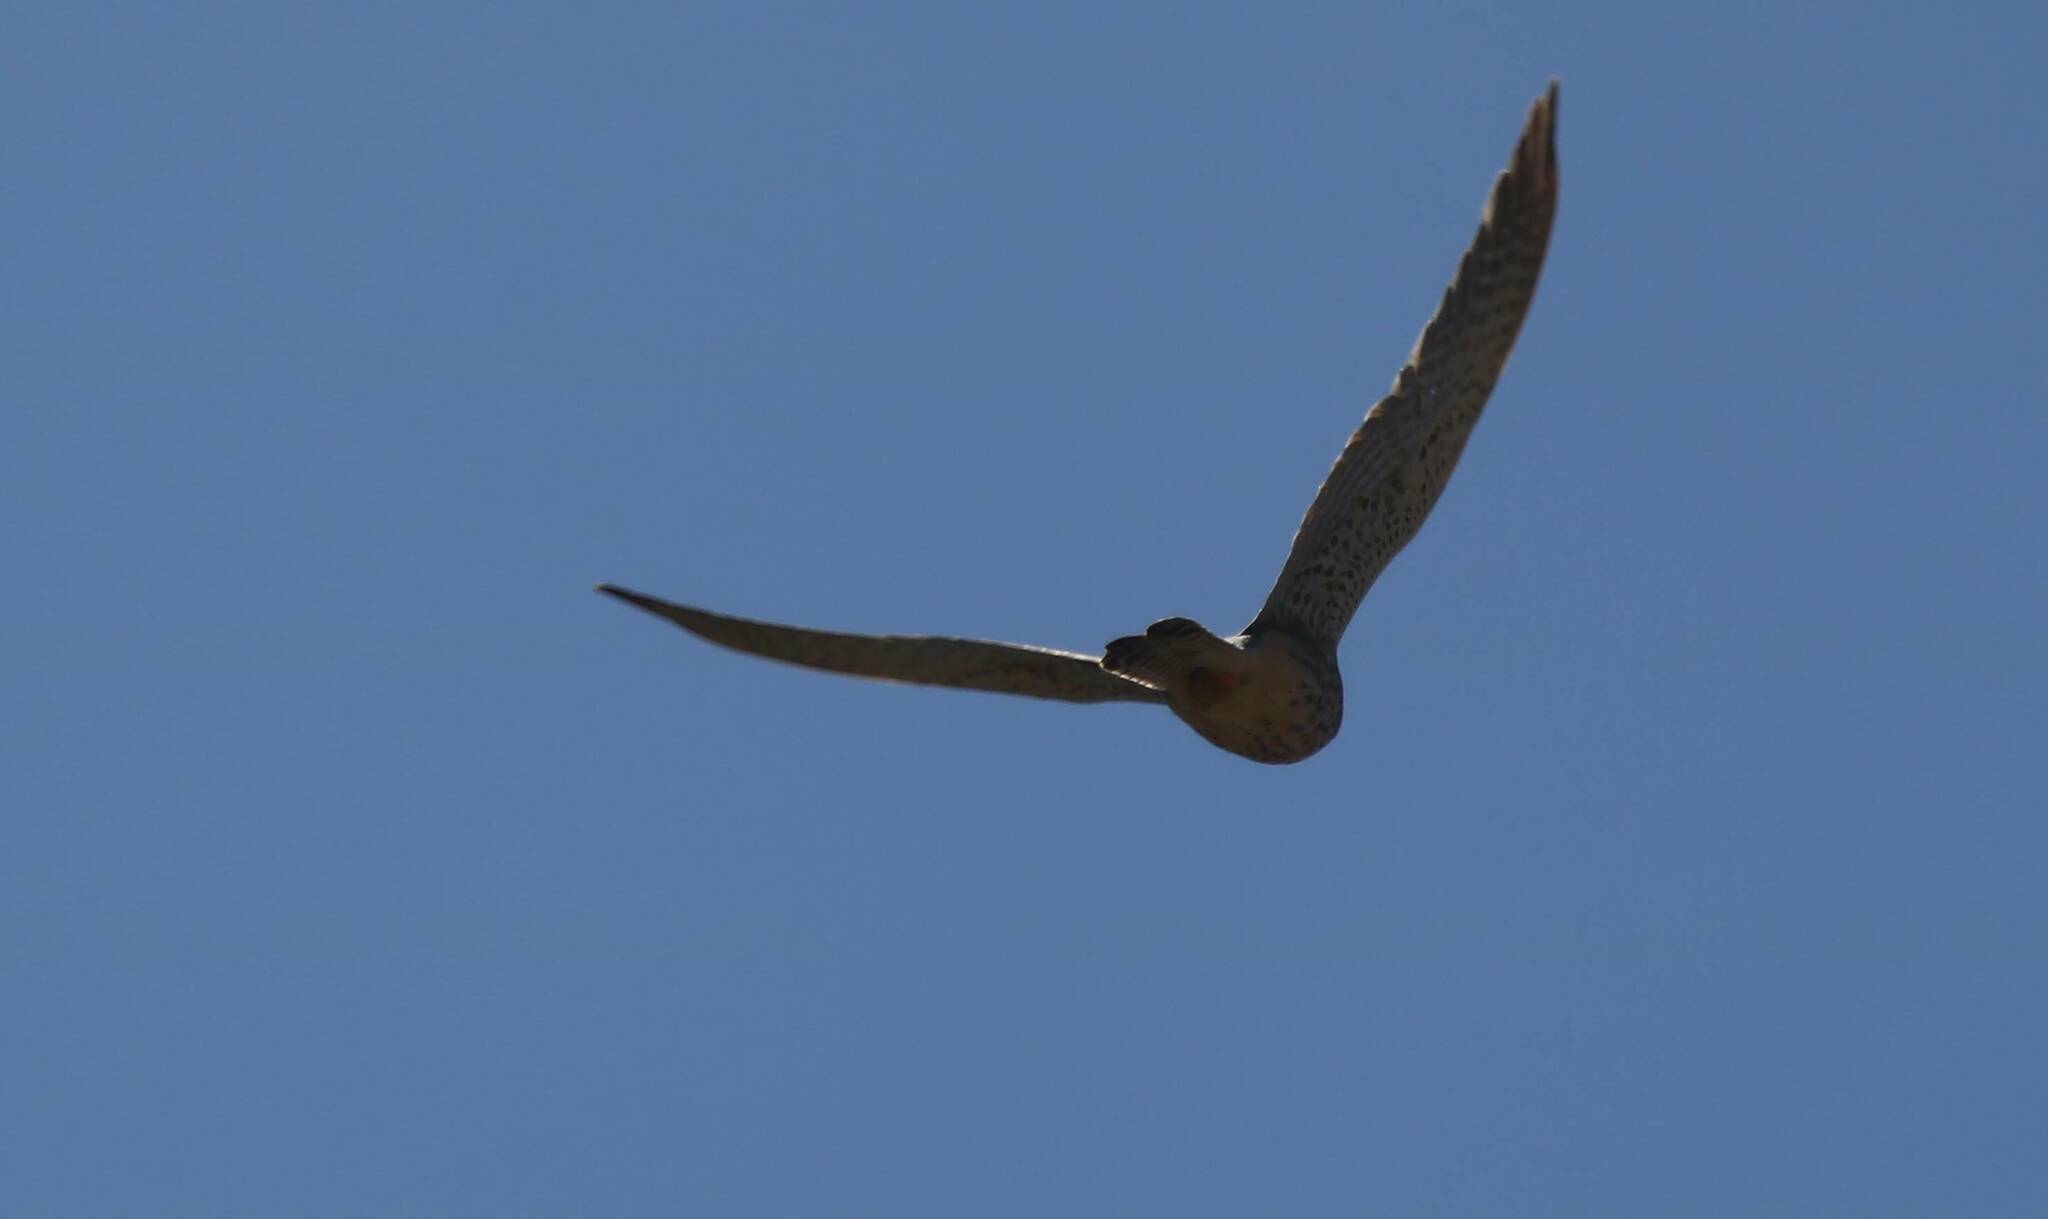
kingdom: Animalia
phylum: Chordata
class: Aves
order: Falconiformes
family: Falconidae
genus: Falco
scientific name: Falco tinnunculus
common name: Common kestrel
